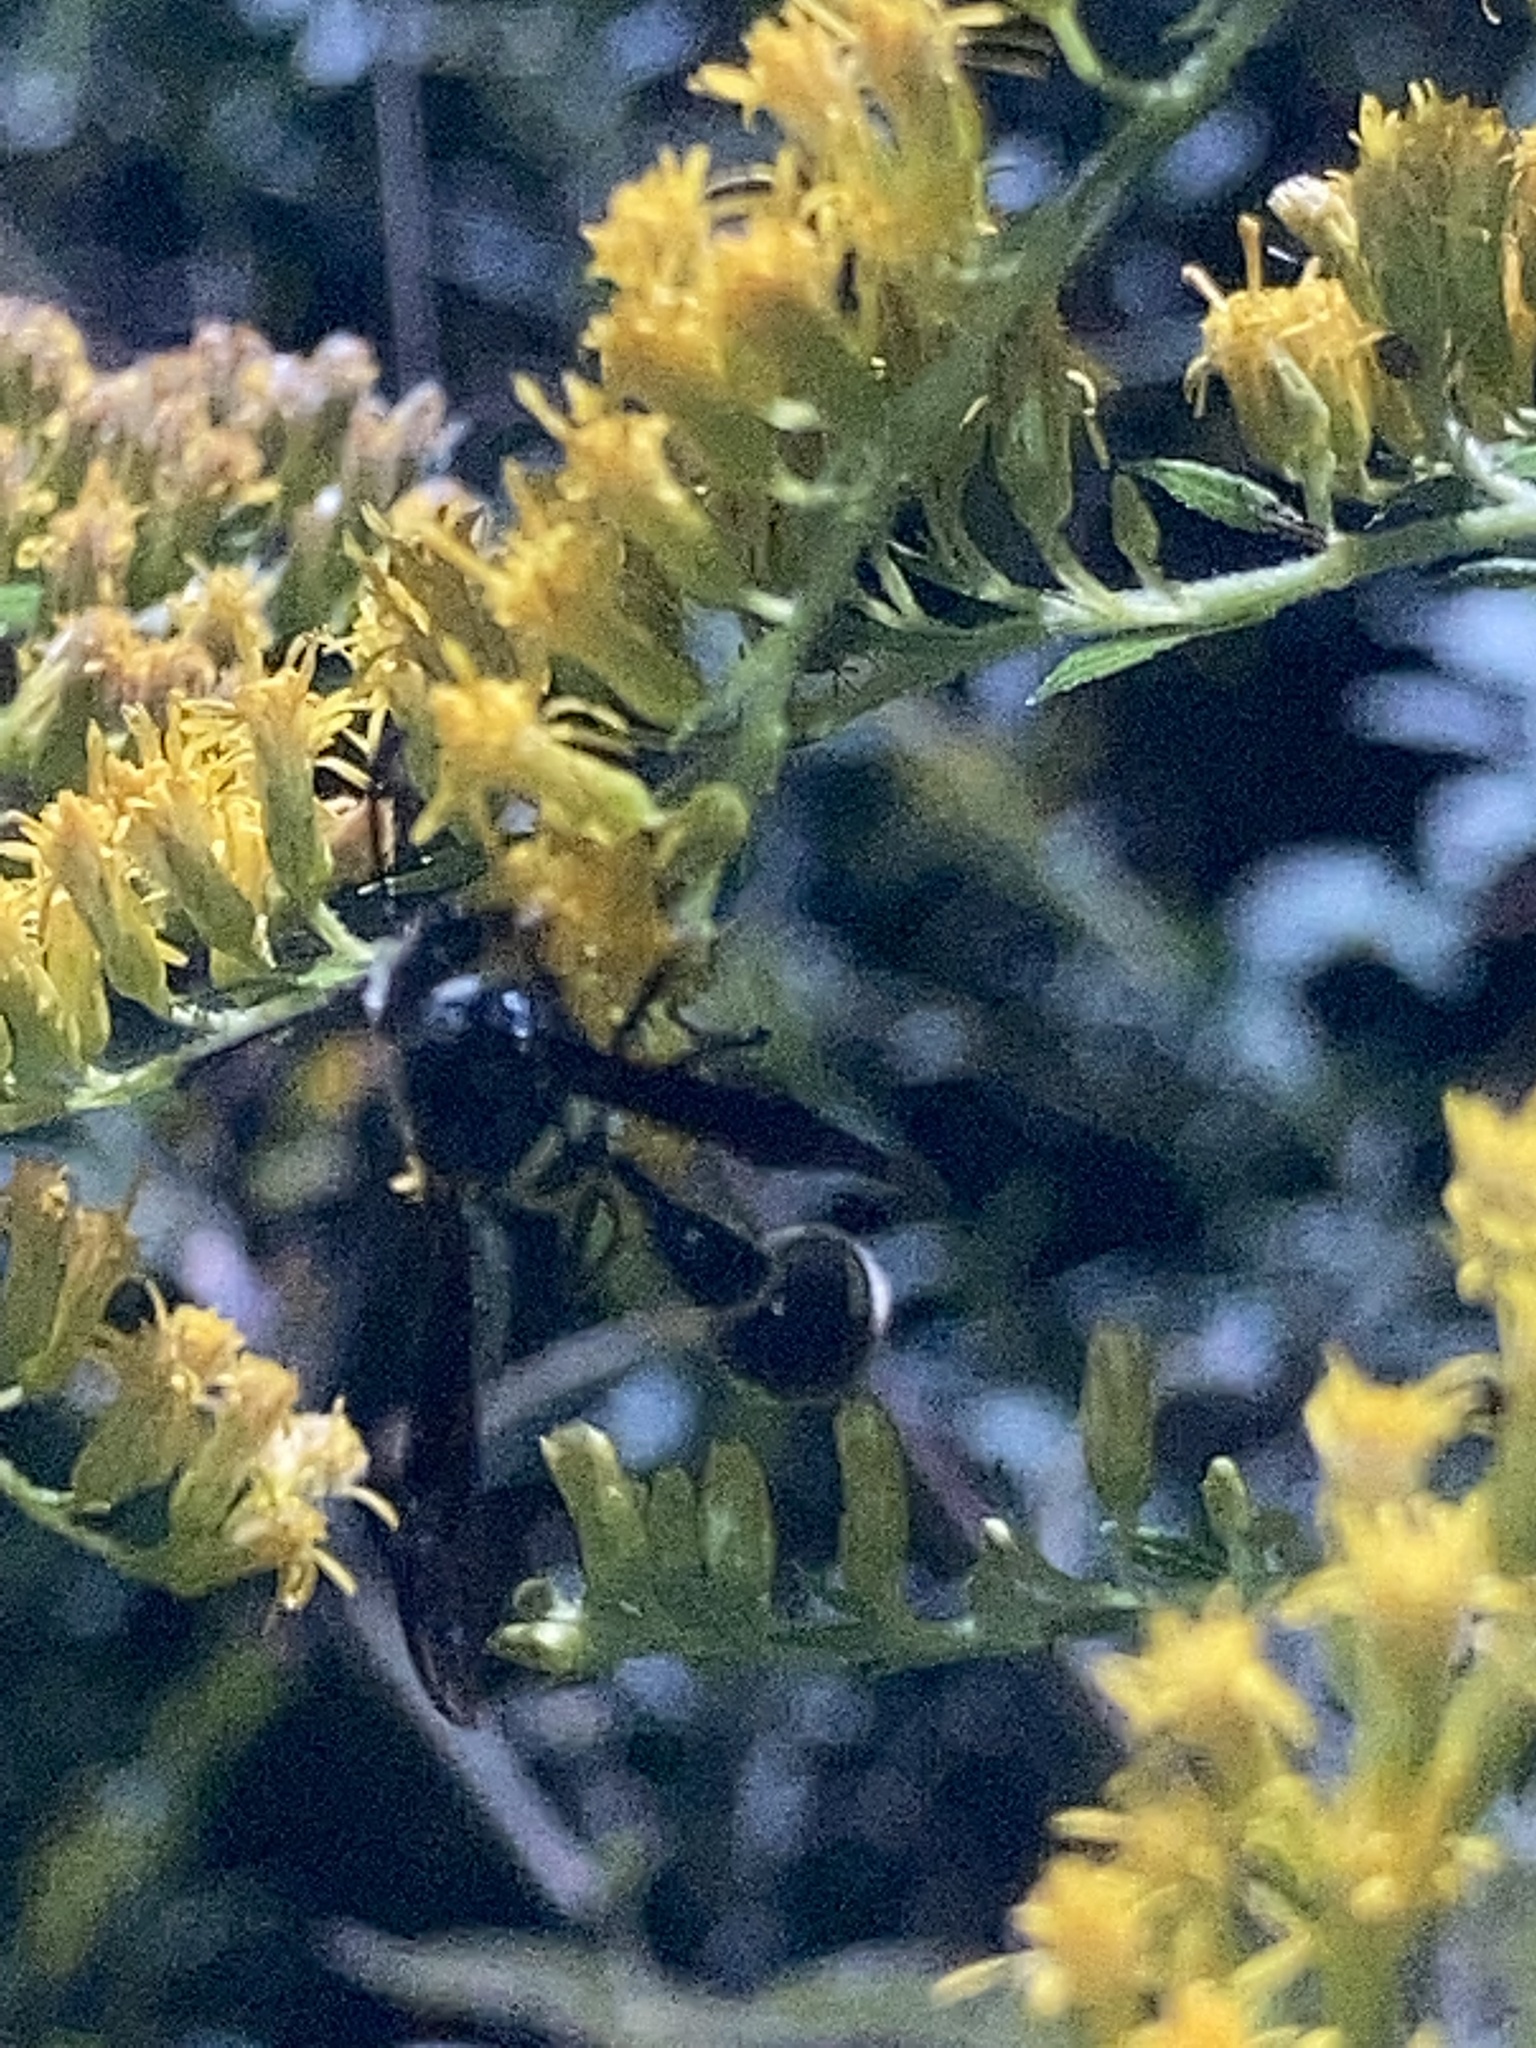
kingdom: Animalia
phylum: Arthropoda
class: Insecta
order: Hymenoptera
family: Vespidae
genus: Eumenes
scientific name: Eumenes fraternus
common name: Fraternal potter wasp
